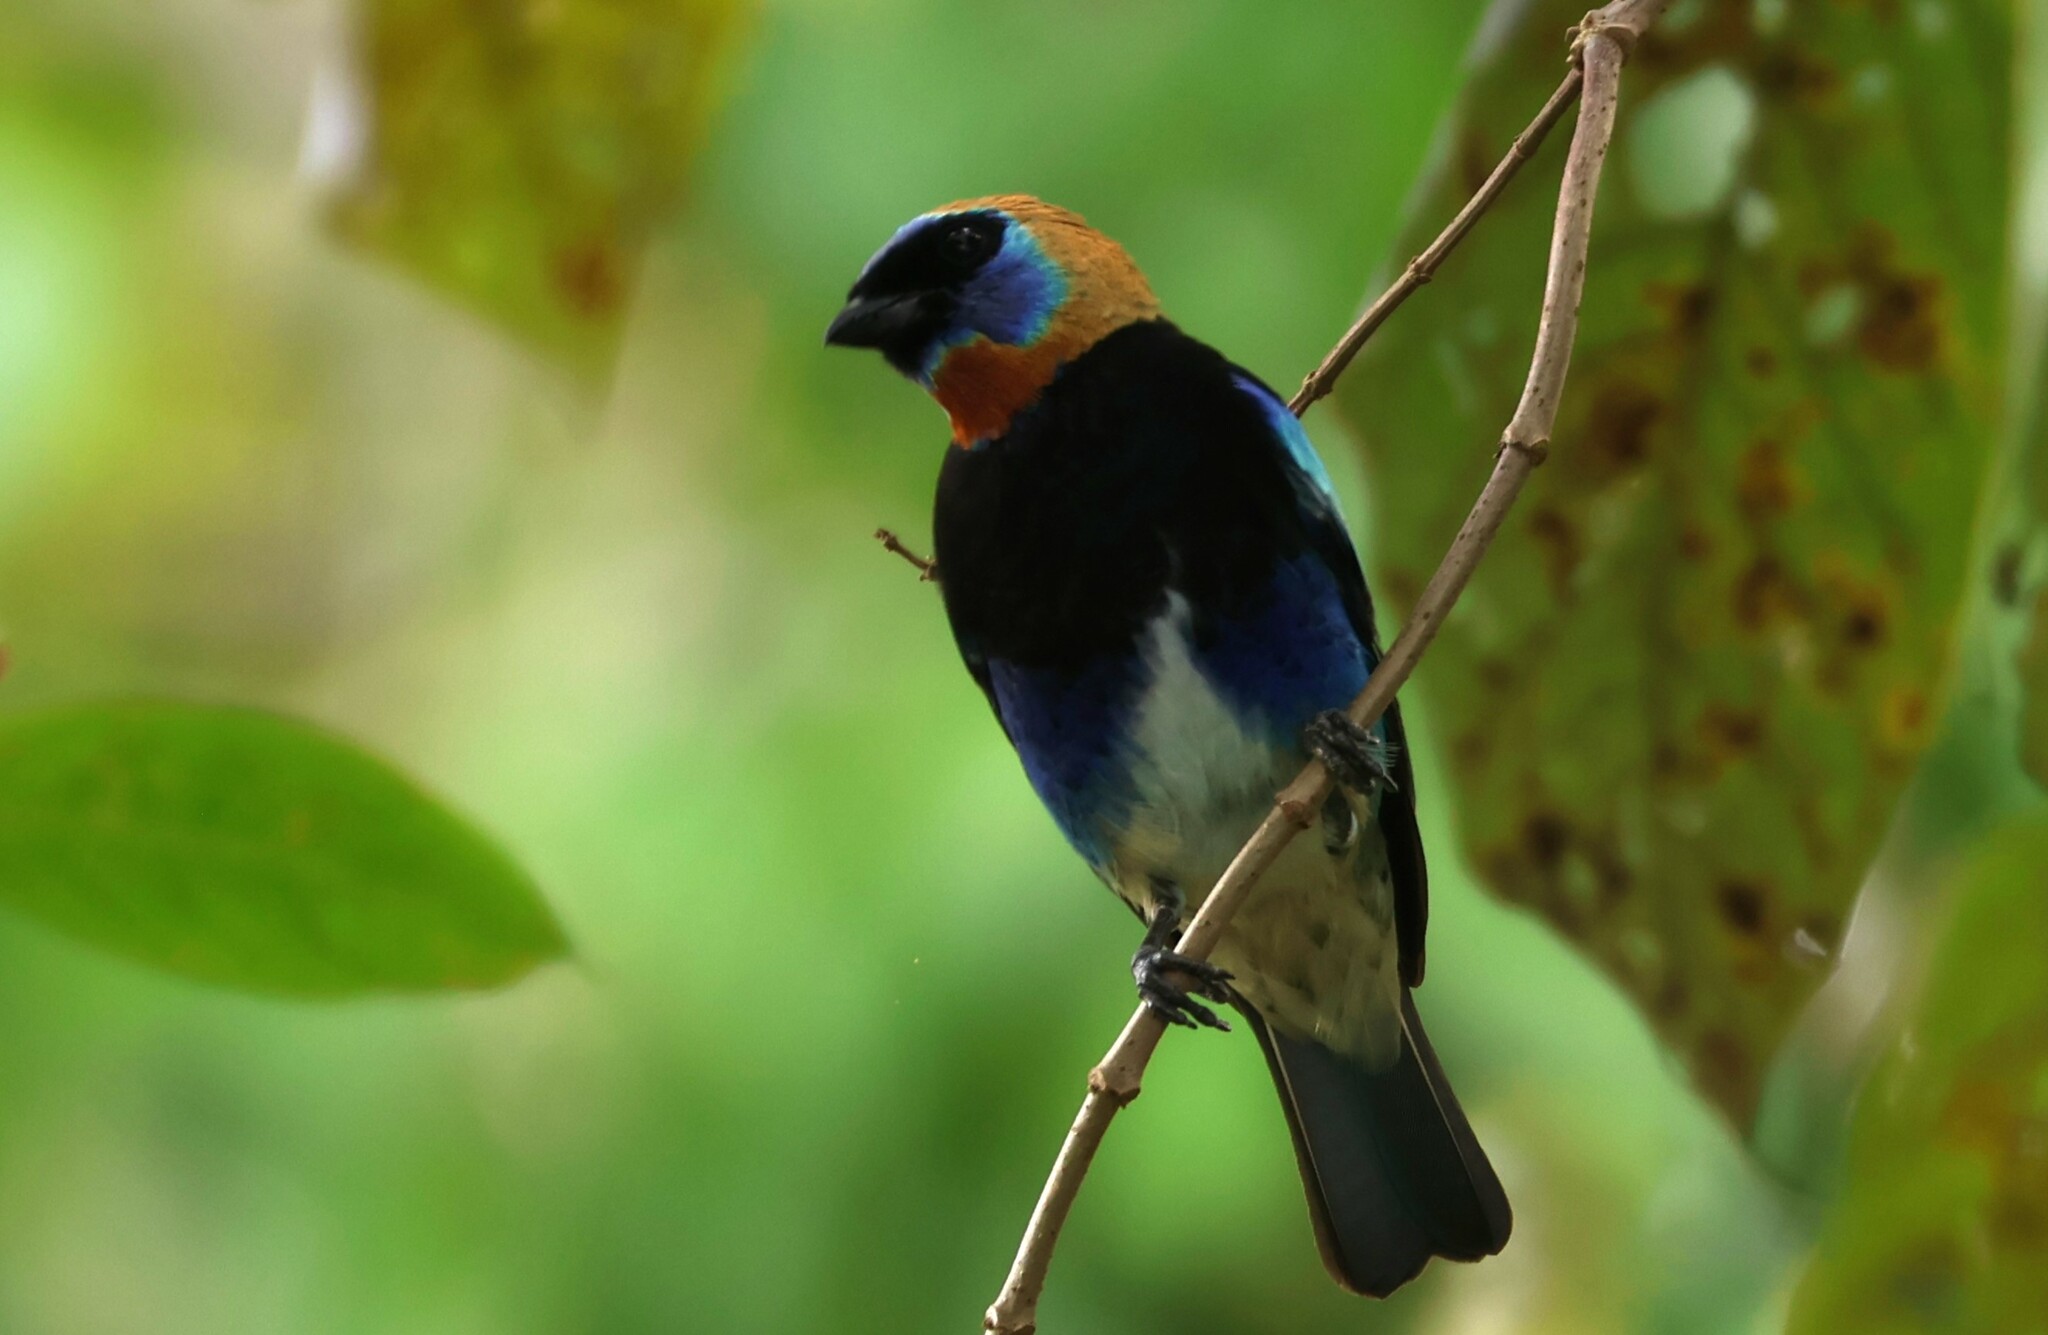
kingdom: Animalia
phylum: Chordata
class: Aves
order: Passeriformes
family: Thraupidae
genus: Stilpnia
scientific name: Stilpnia larvata
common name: Golden-hooded tanager
